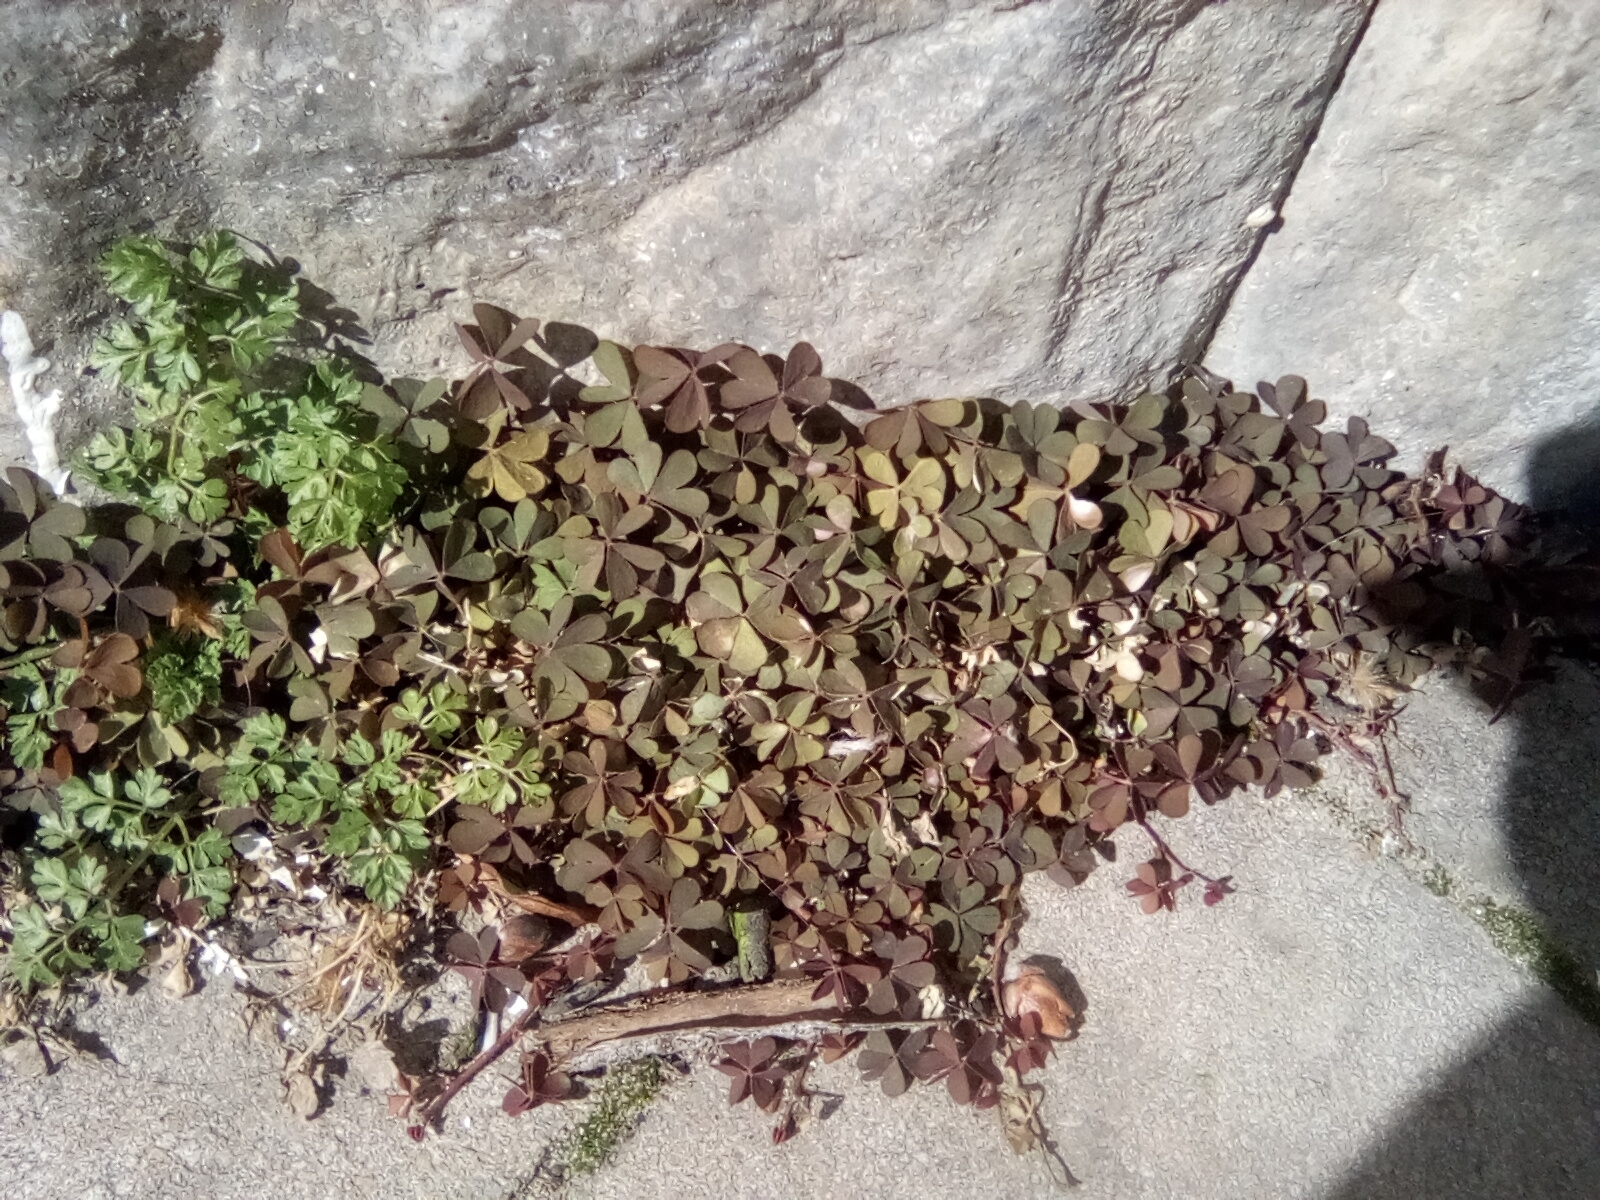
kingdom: Plantae
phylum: Tracheophyta
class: Magnoliopsida
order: Oxalidales
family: Oxalidaceae
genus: Oxalis
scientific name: Oxalis corniculata
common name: Procumbent yellow-sorrel
